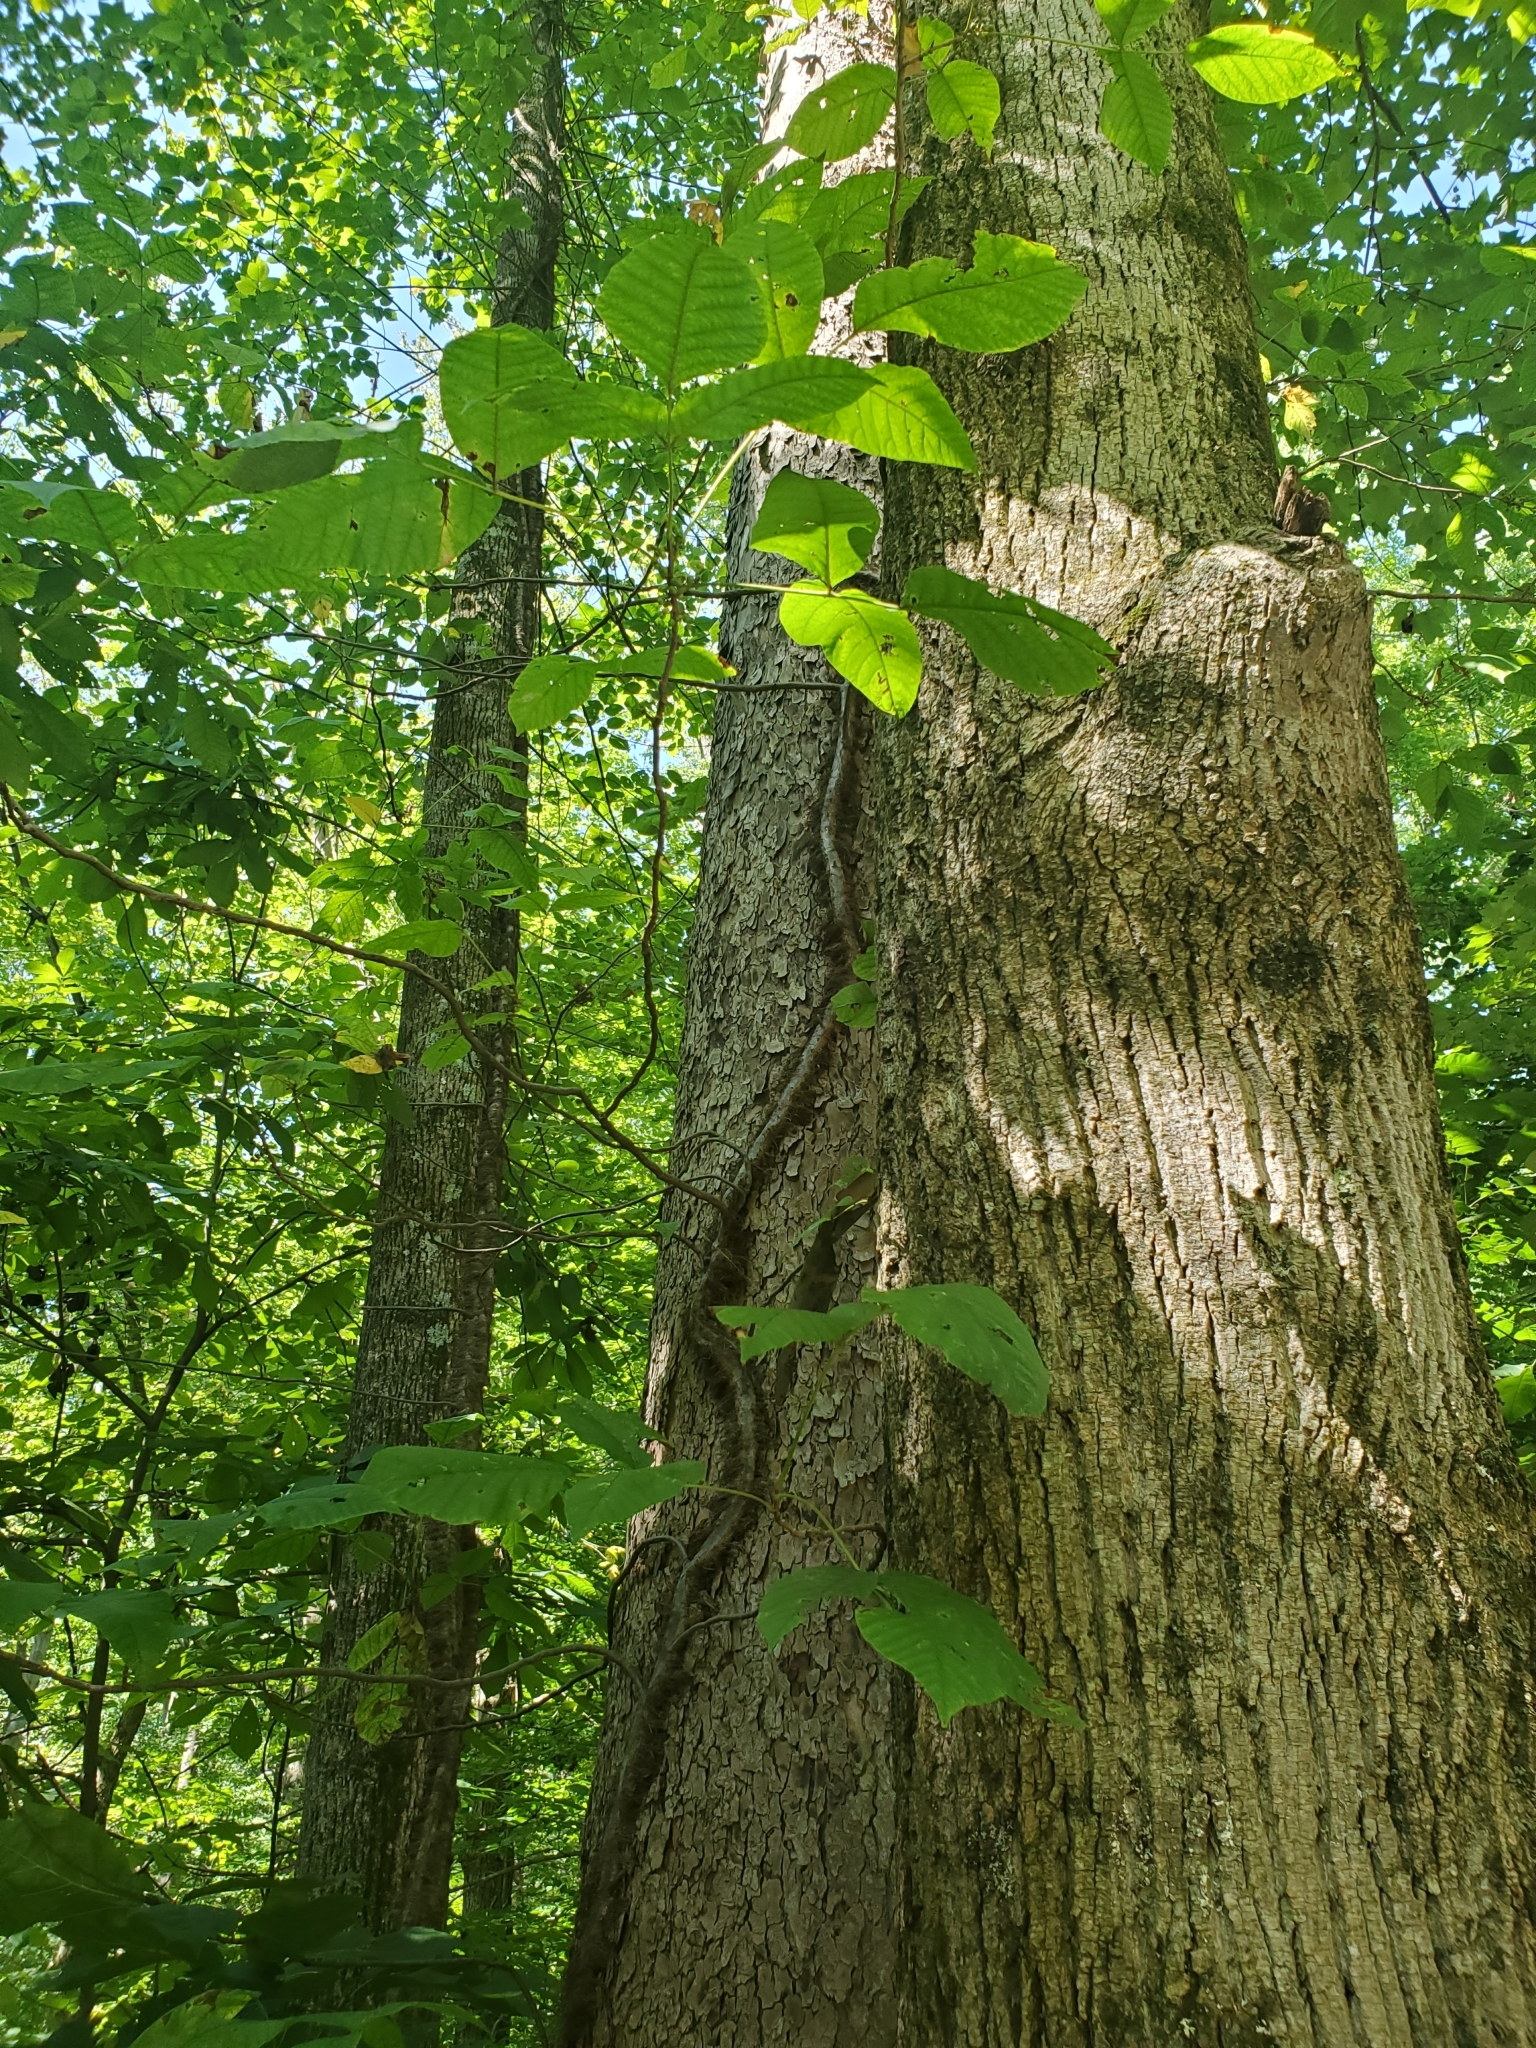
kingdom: Plantae
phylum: Tracheophyta
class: Magnoliopsida
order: Sapindales
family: Anacardiaceae
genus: Toxicodendron
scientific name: Toxicodendron radicans
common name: Poison ivy
